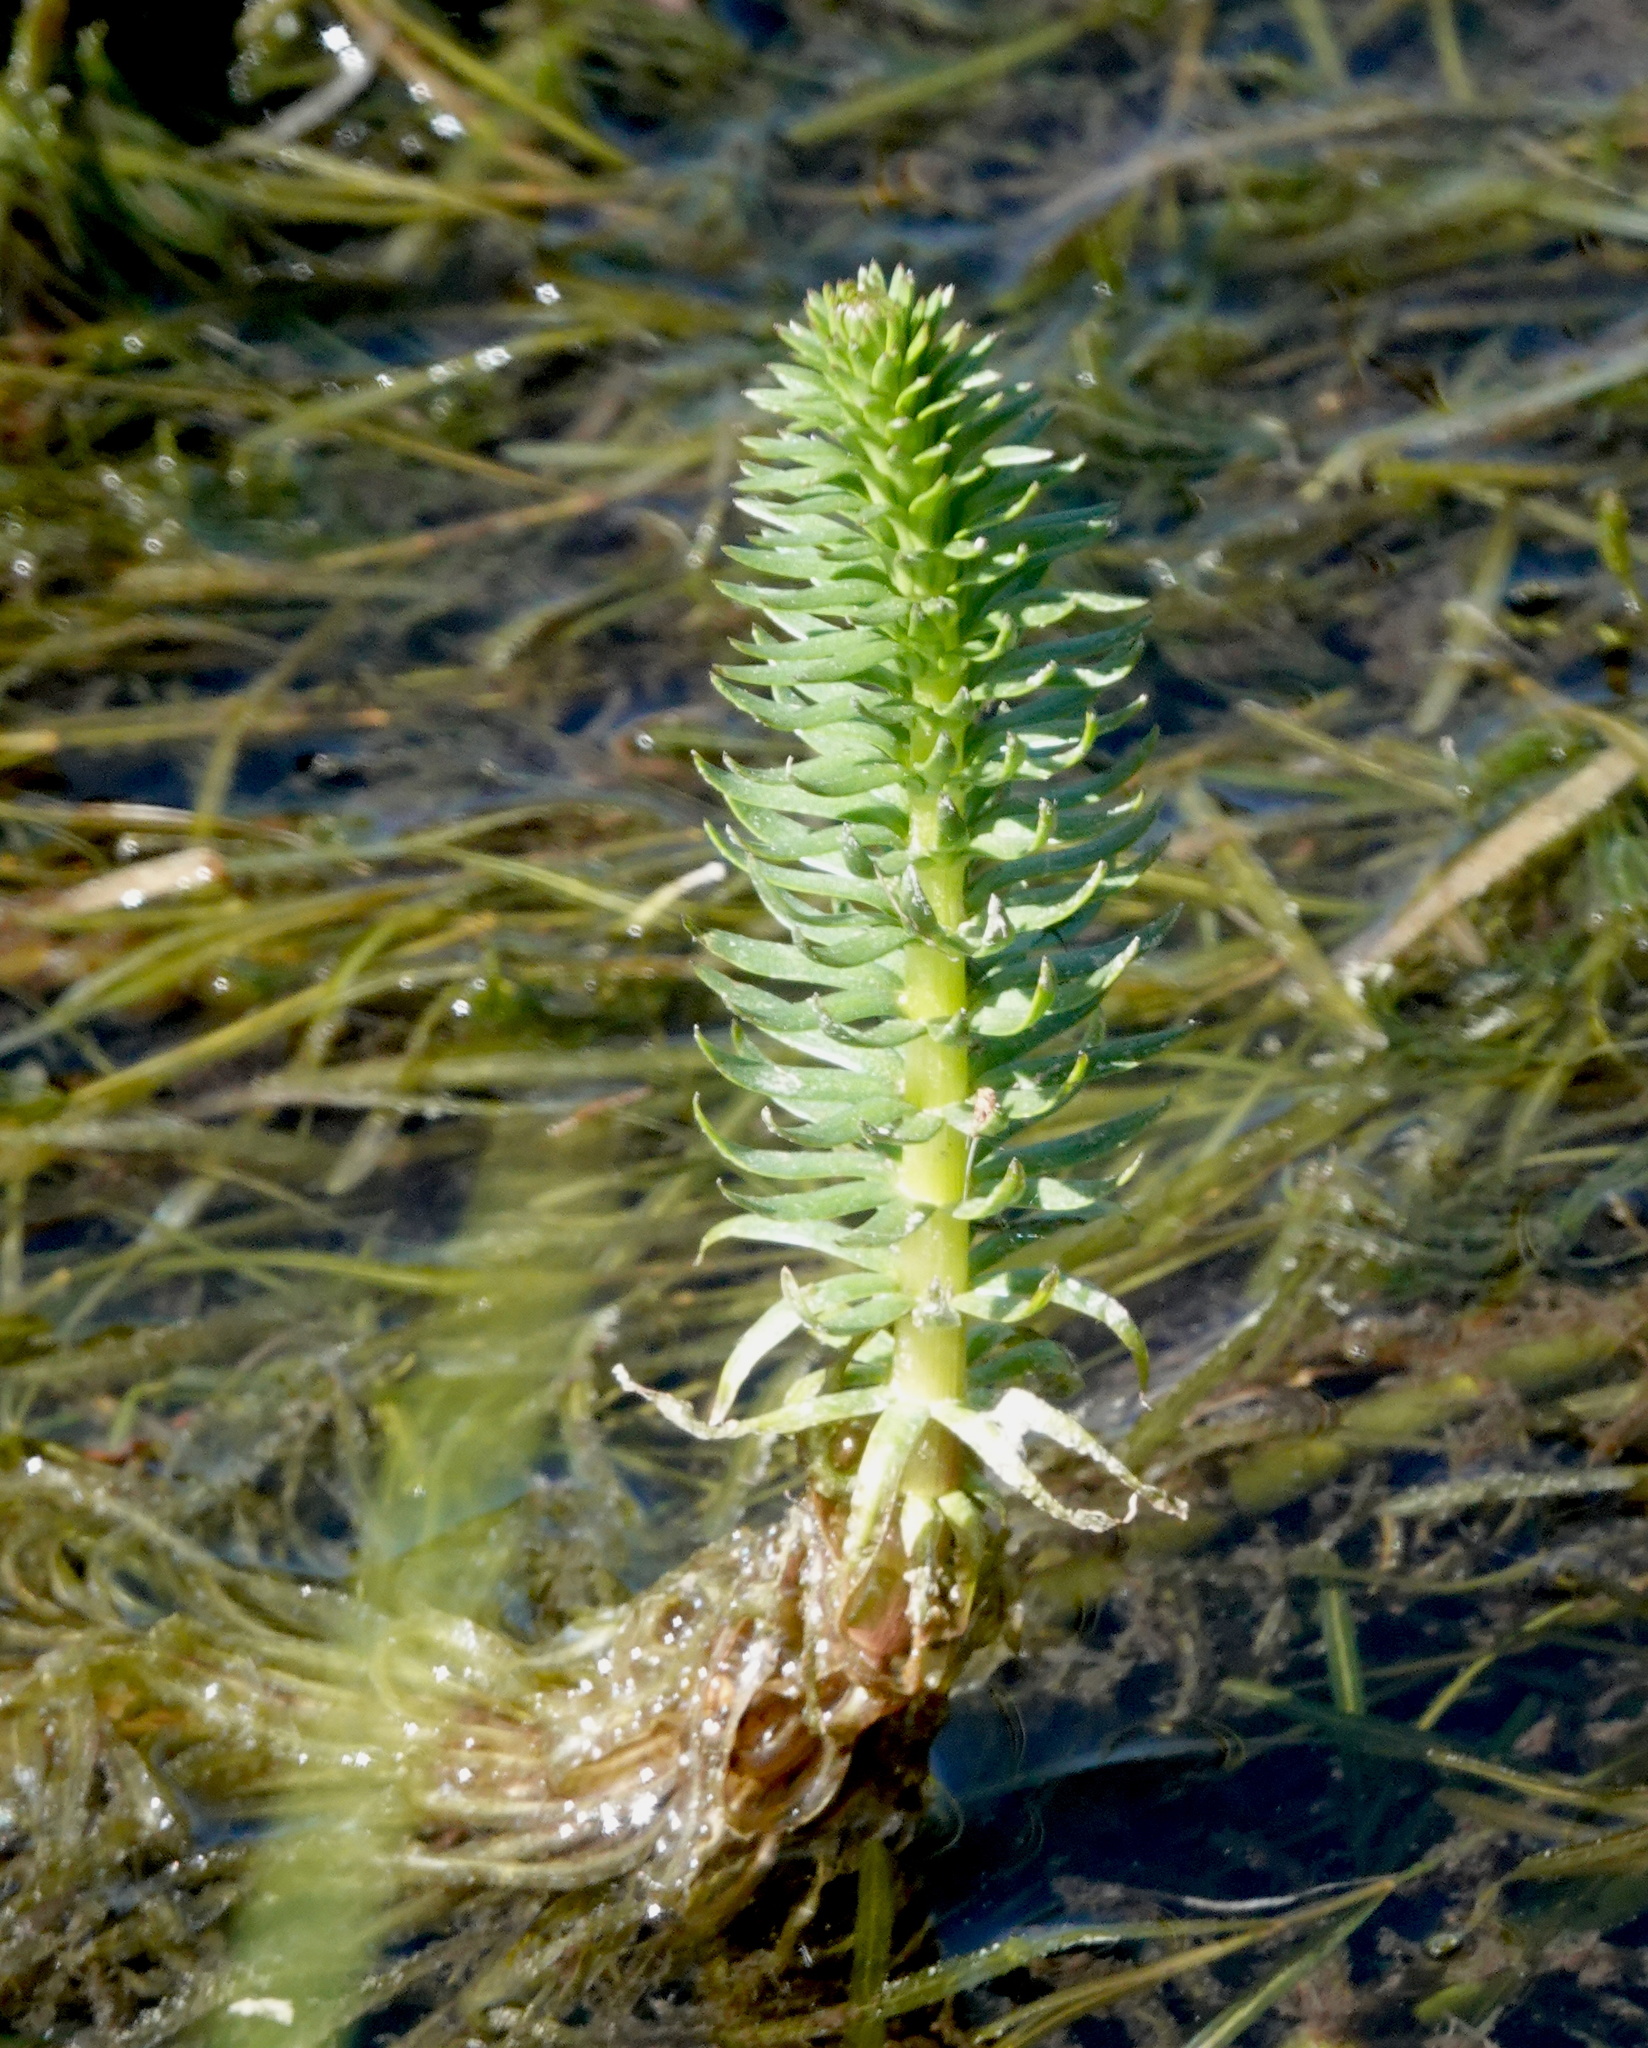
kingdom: Plantae
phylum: Tracheophyta
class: Magnoliopsida
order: Lamiales
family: Plantaginaceae
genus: Hippuris
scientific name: Hippuris vulgaris
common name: Mare's-tail
